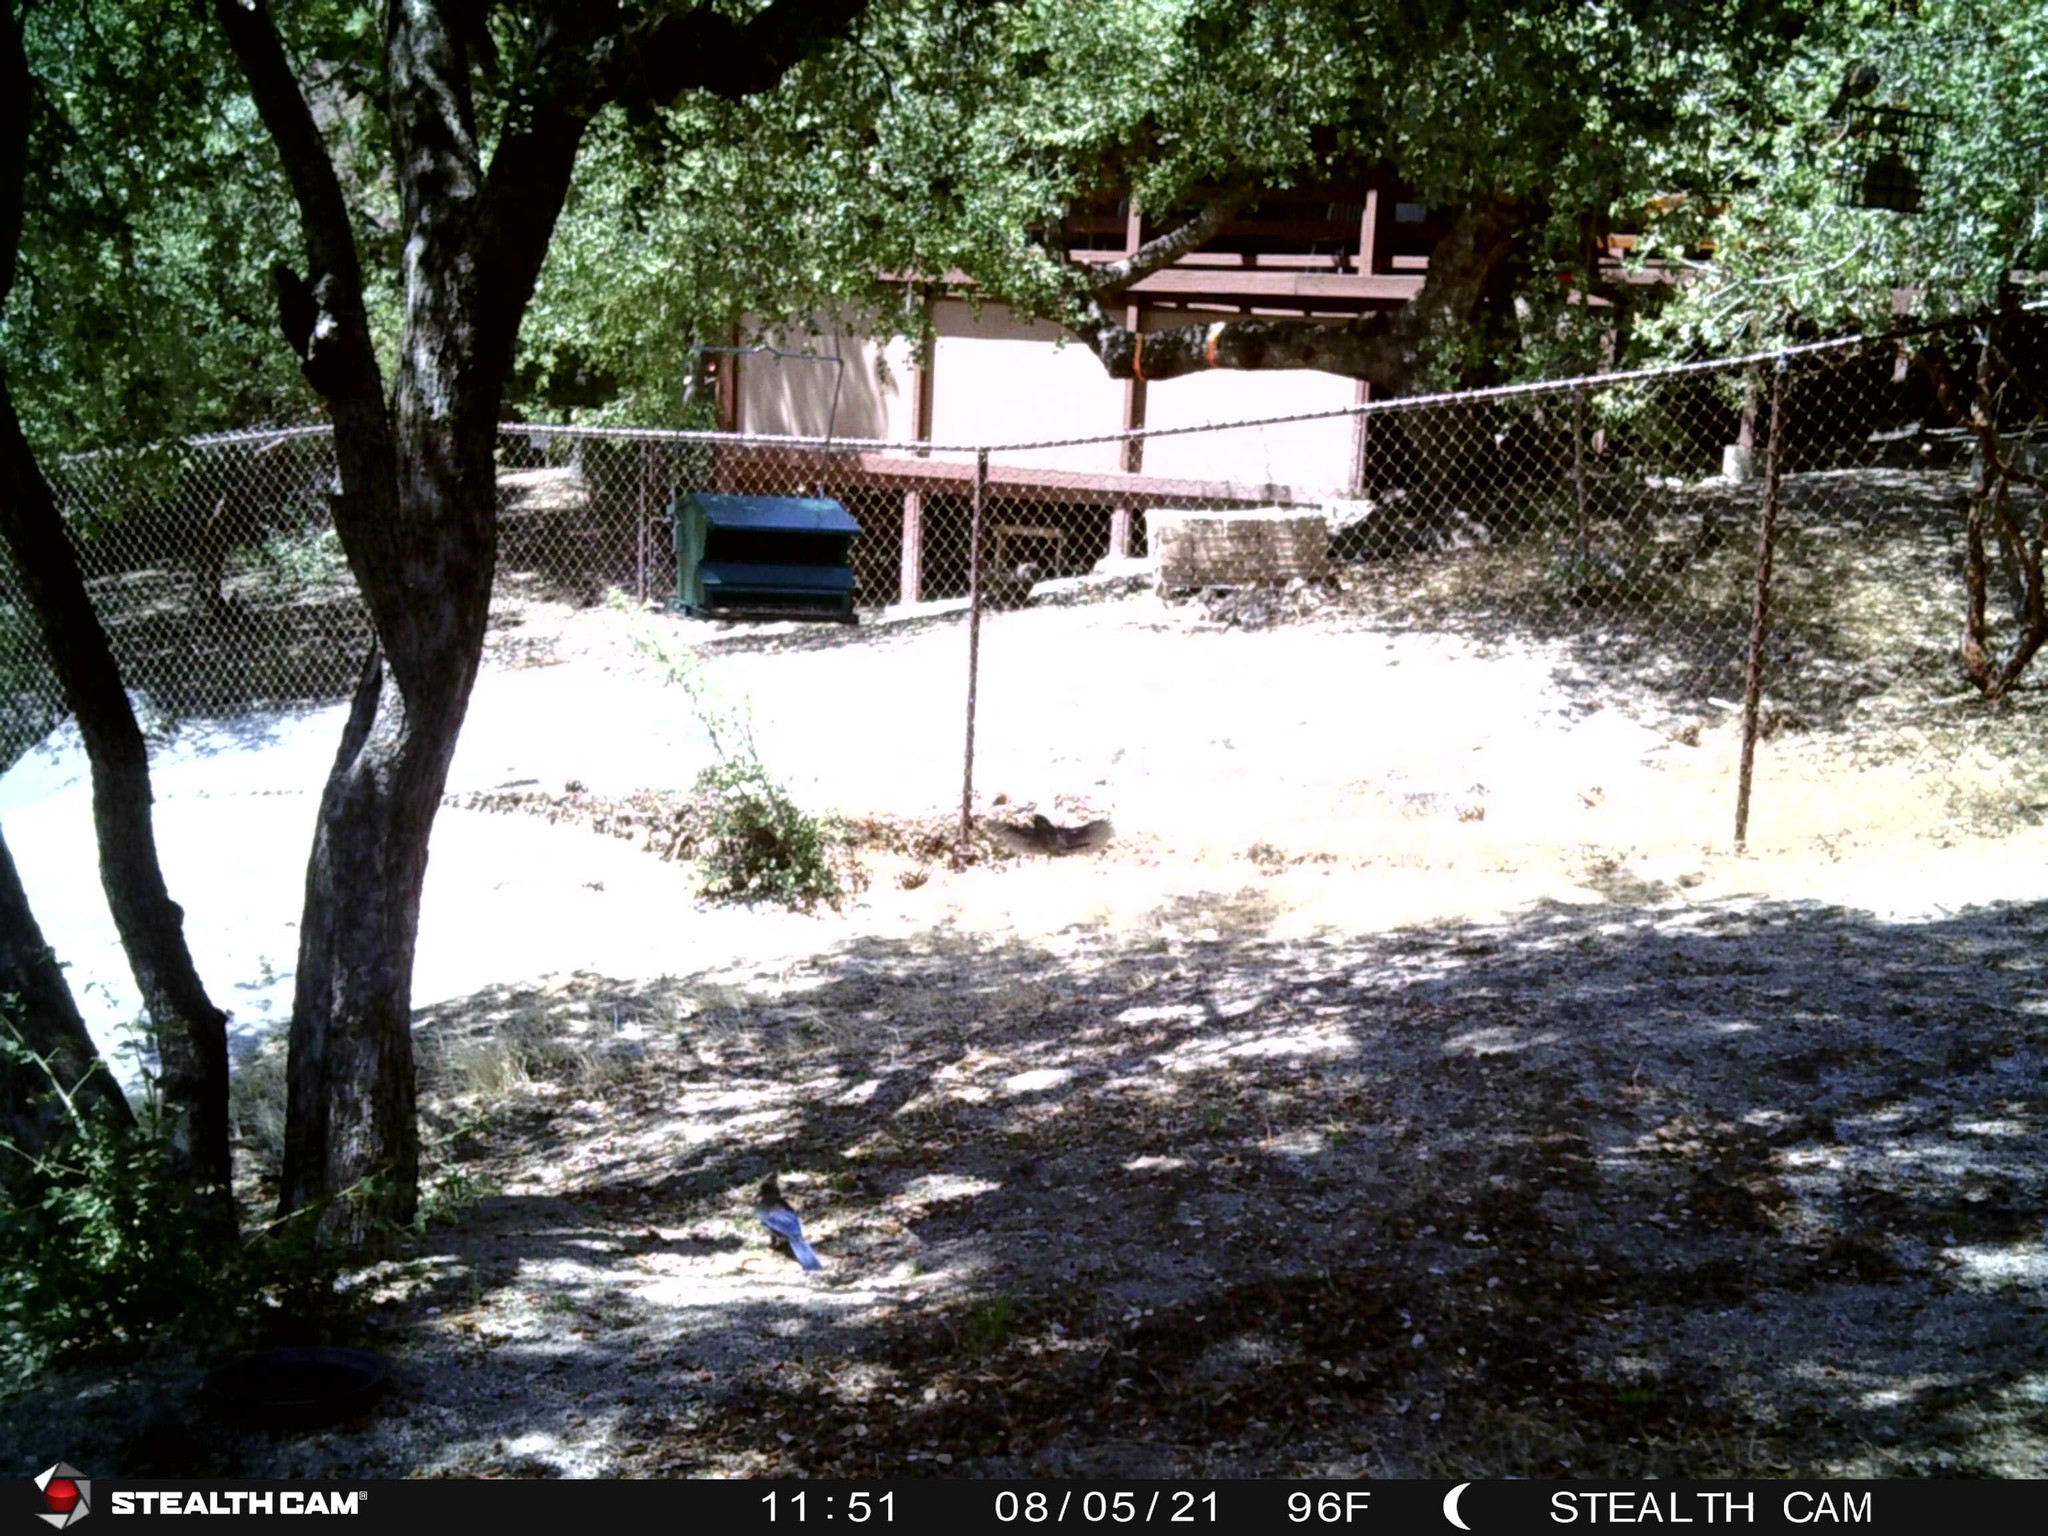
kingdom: Animalia
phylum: Chordata
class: Aves
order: Passeriformes
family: Corvidae
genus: Cyanocitta
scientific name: Cyanocitta stelleri
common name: Steller's jay
